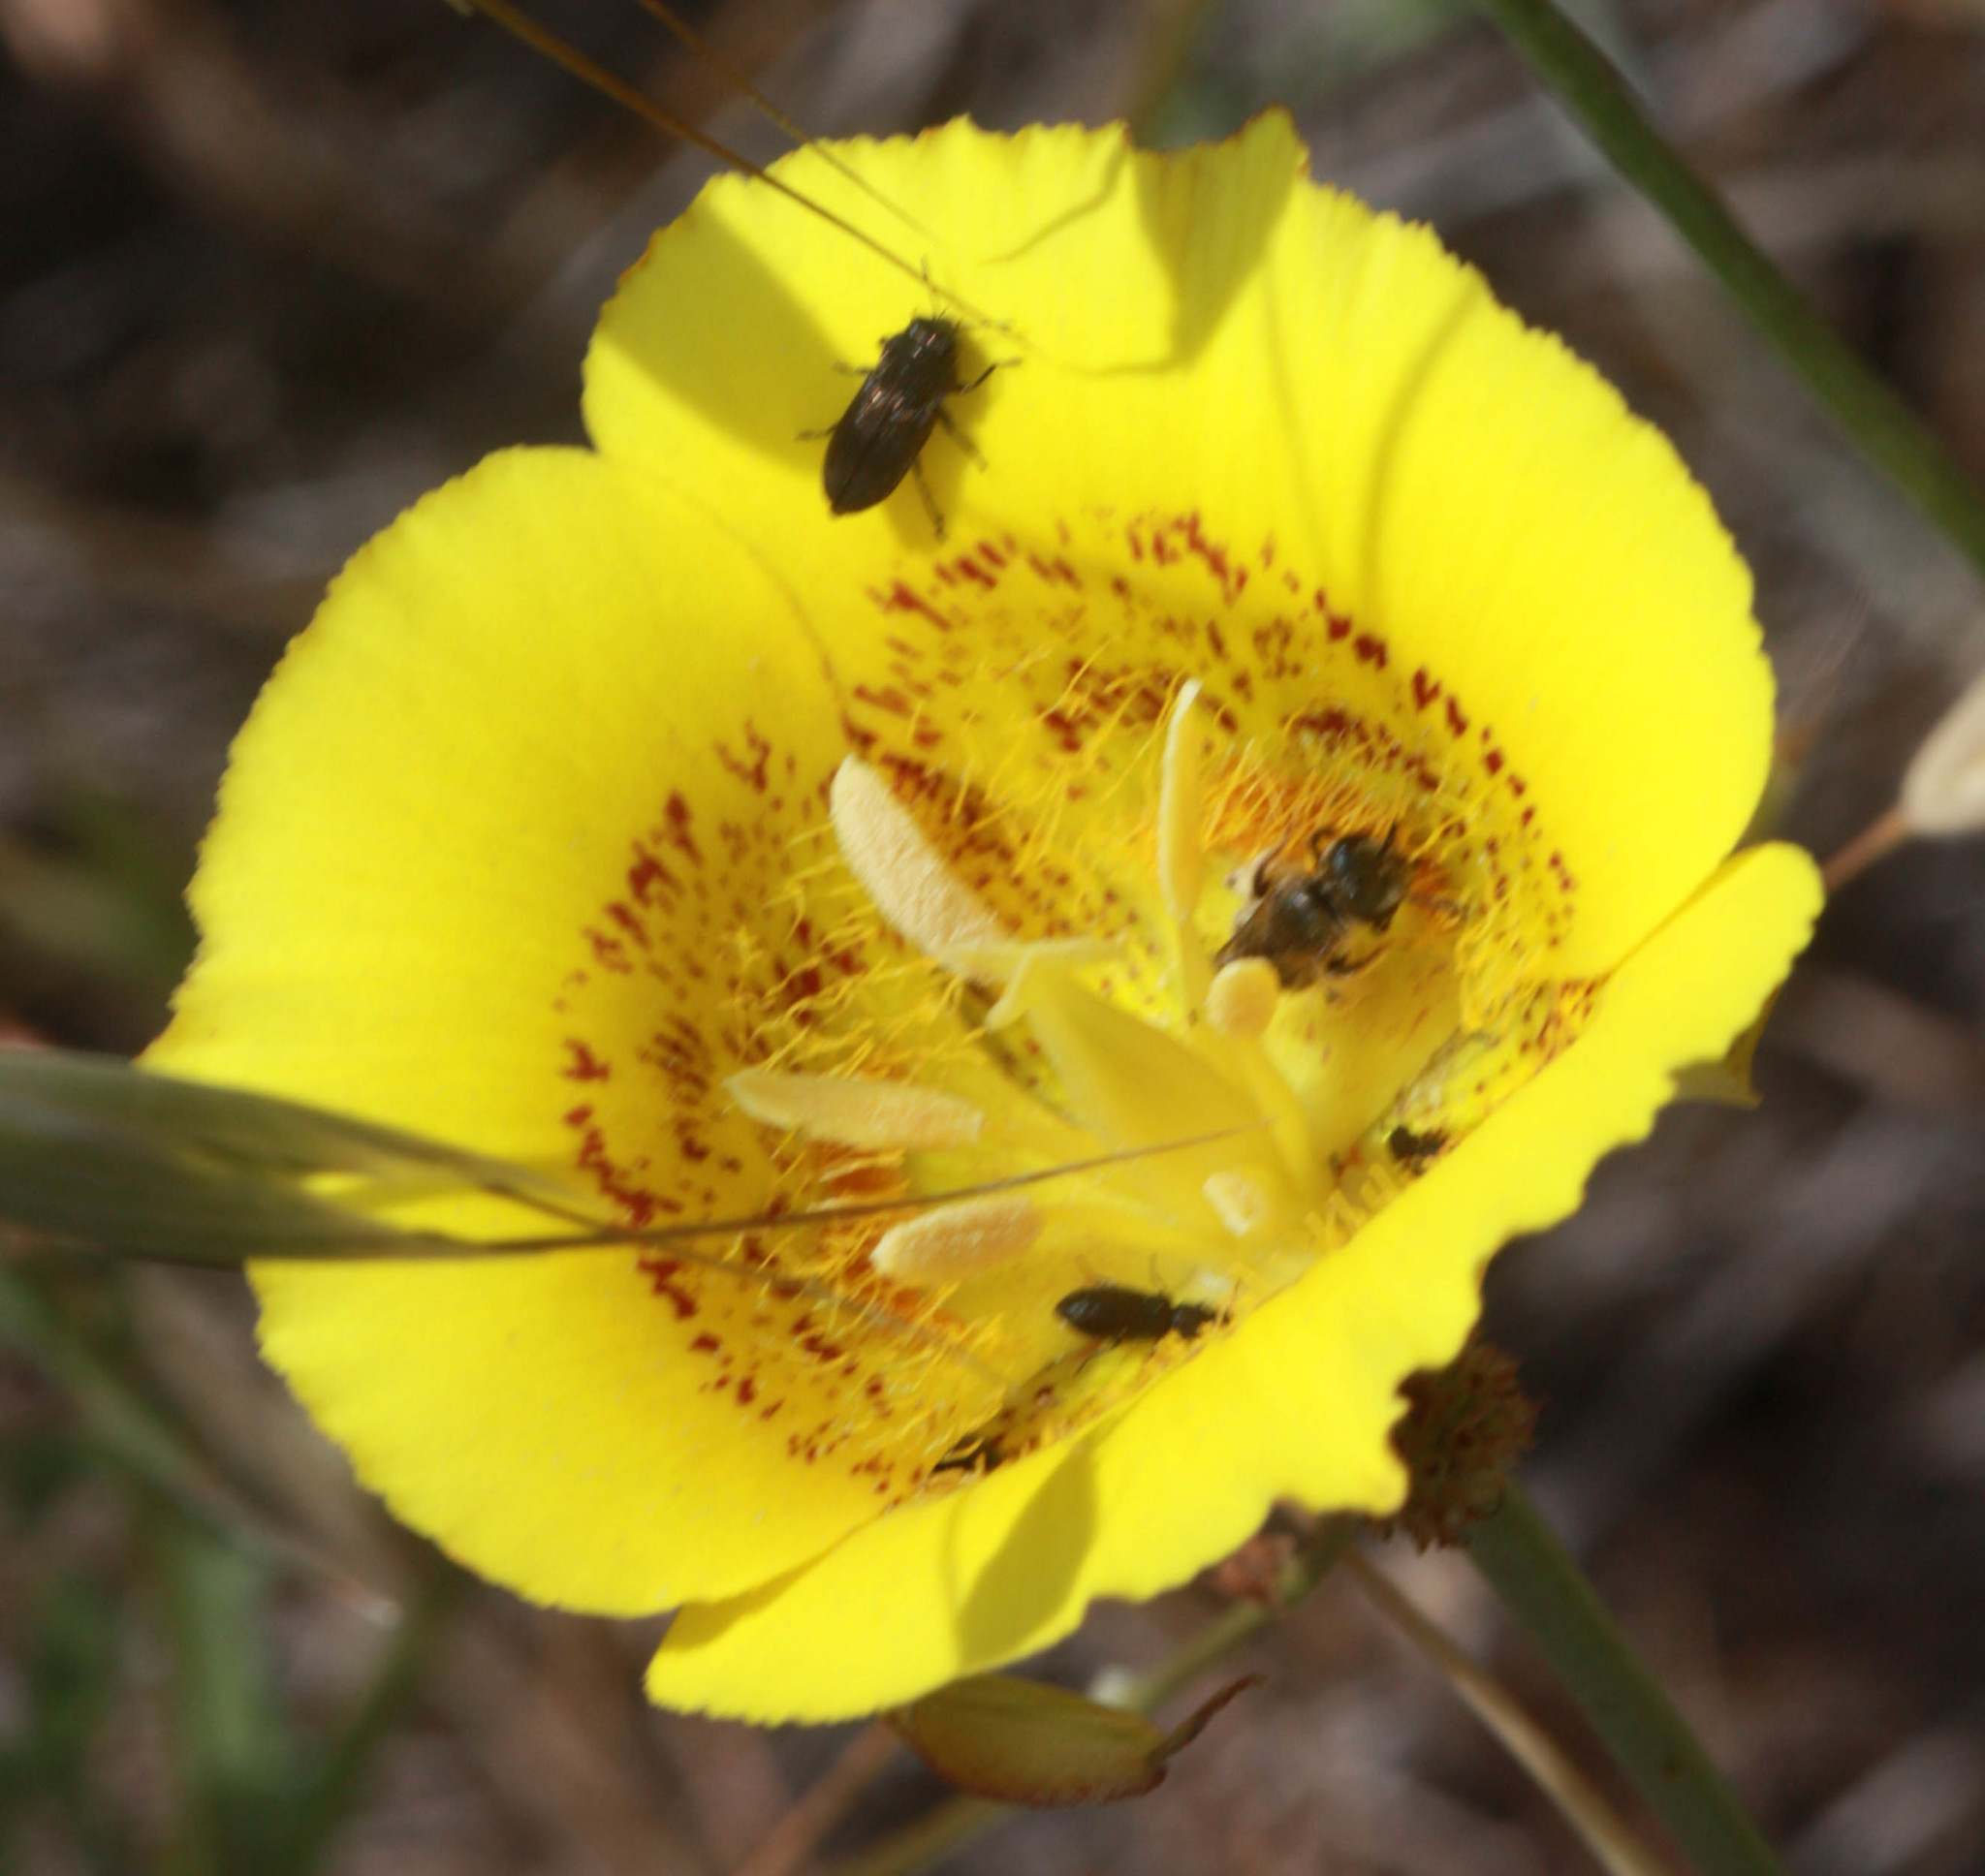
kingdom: Plantae
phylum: Tracheophyta
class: Liliopsida
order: Liliales
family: Liliaceae
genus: Calochortus
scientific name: Calochortus luteus
